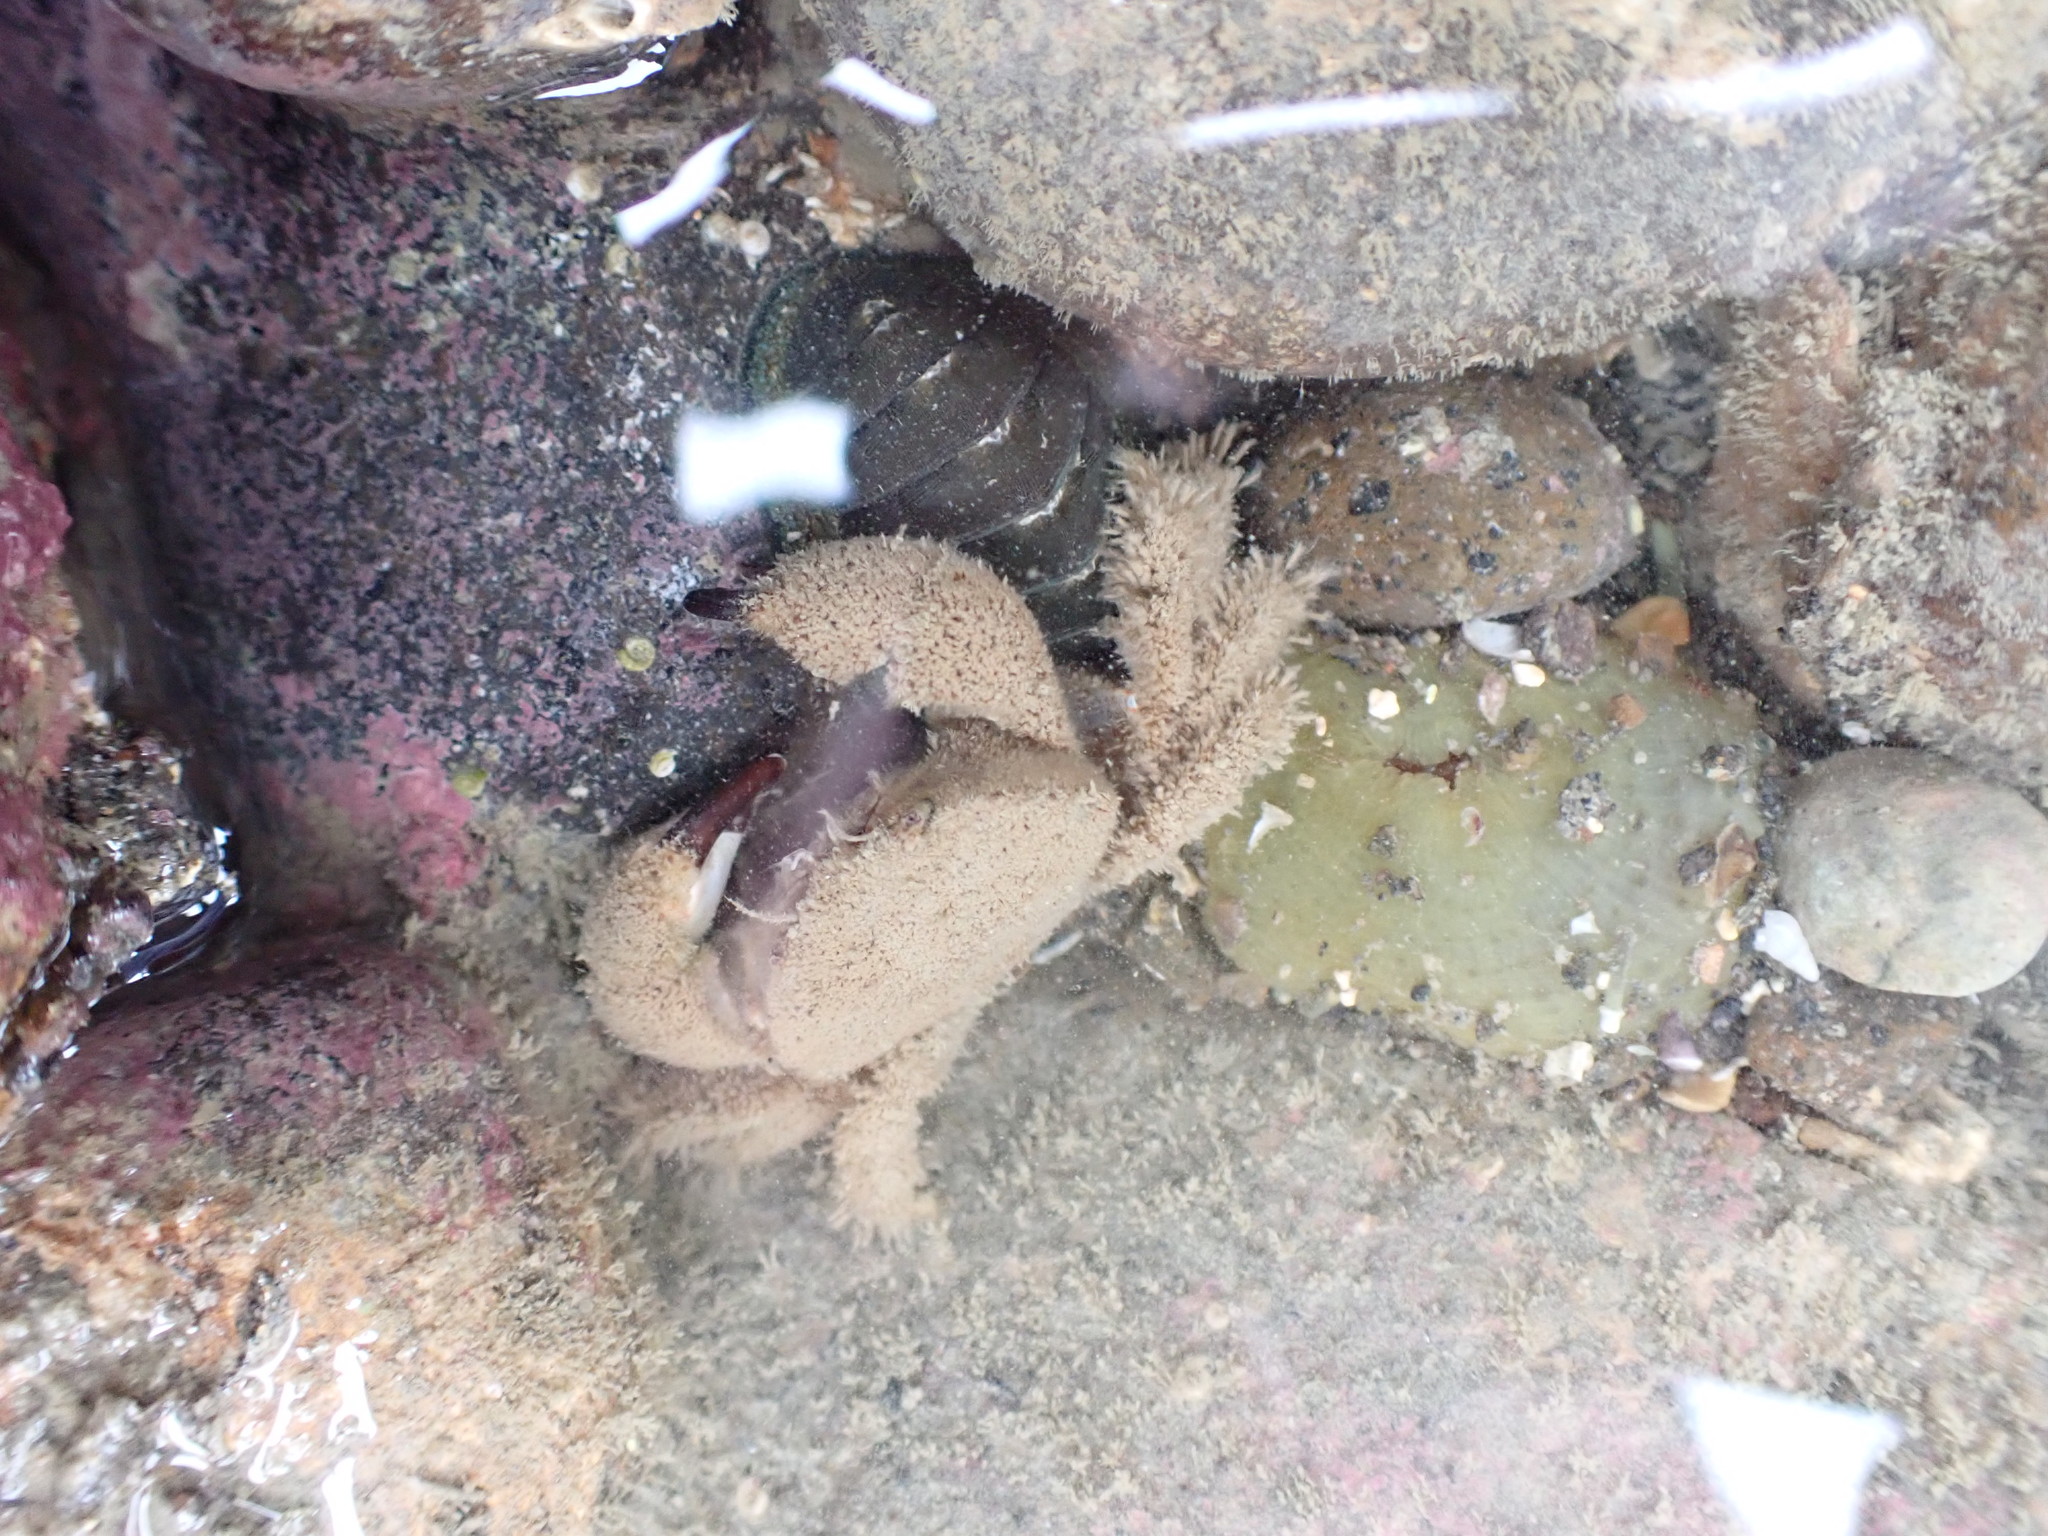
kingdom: Animalia
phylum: Arthropoda
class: Malacostraca
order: Decapoda
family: Pilumnidae
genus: Pilumnus
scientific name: Pilumnus lumpinus
